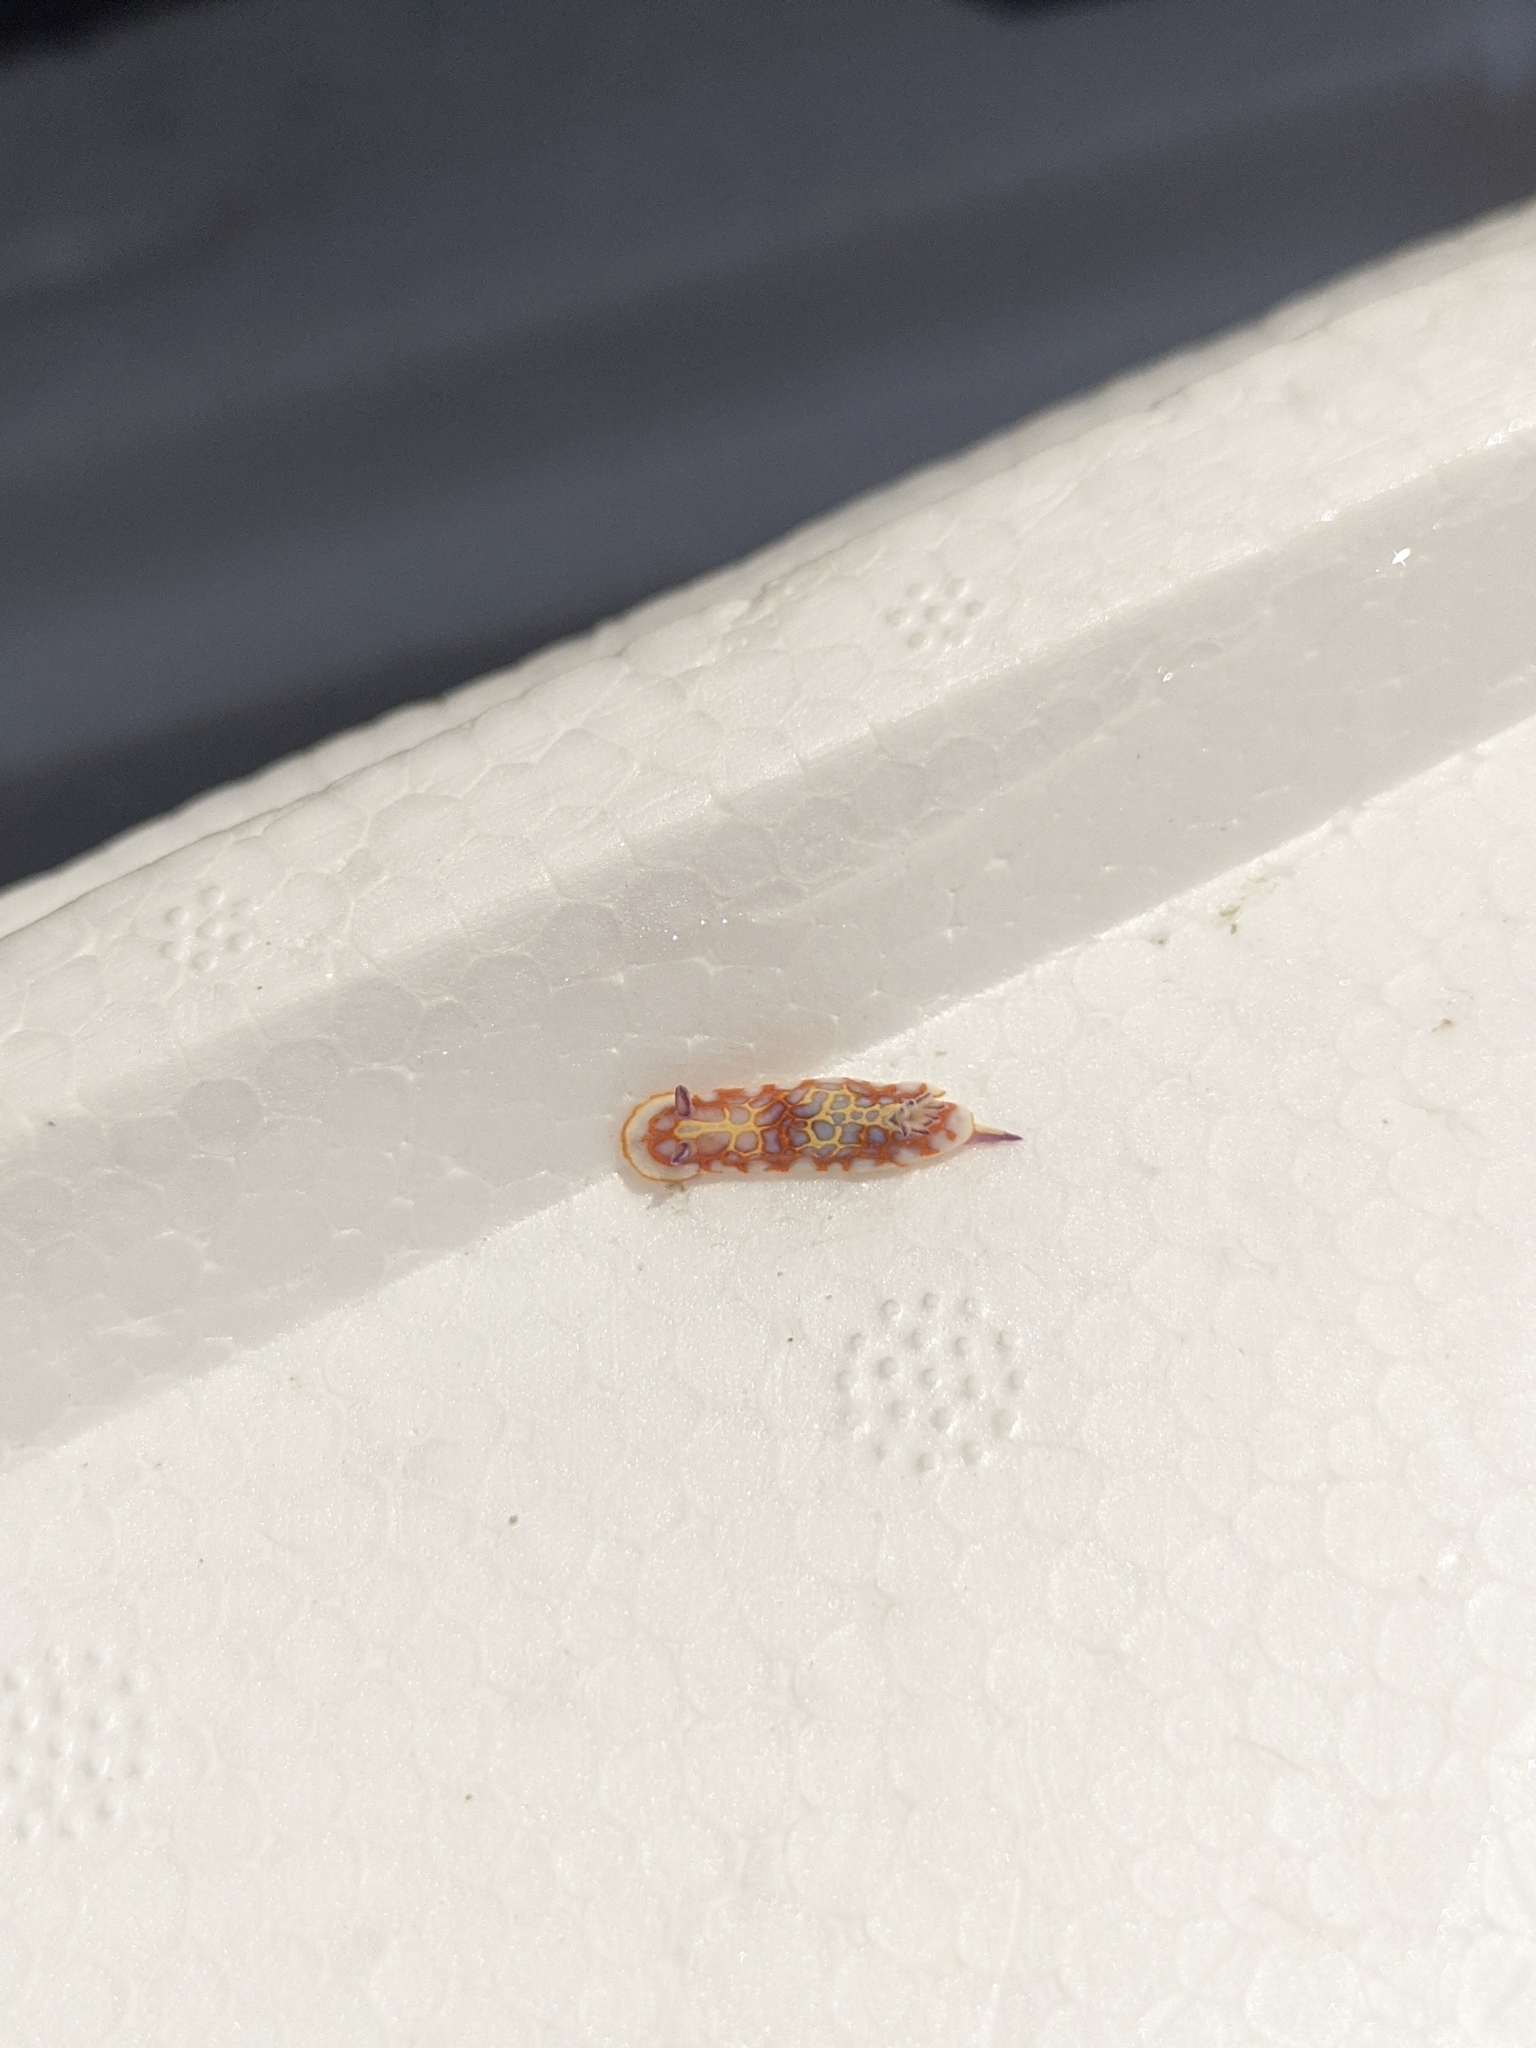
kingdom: Animalia
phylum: Mollusca
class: Gastropoda
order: Nudibranchia
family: Chromodorididae
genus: Felimida
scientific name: Felimida clenchi
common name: Bill clench's doris
